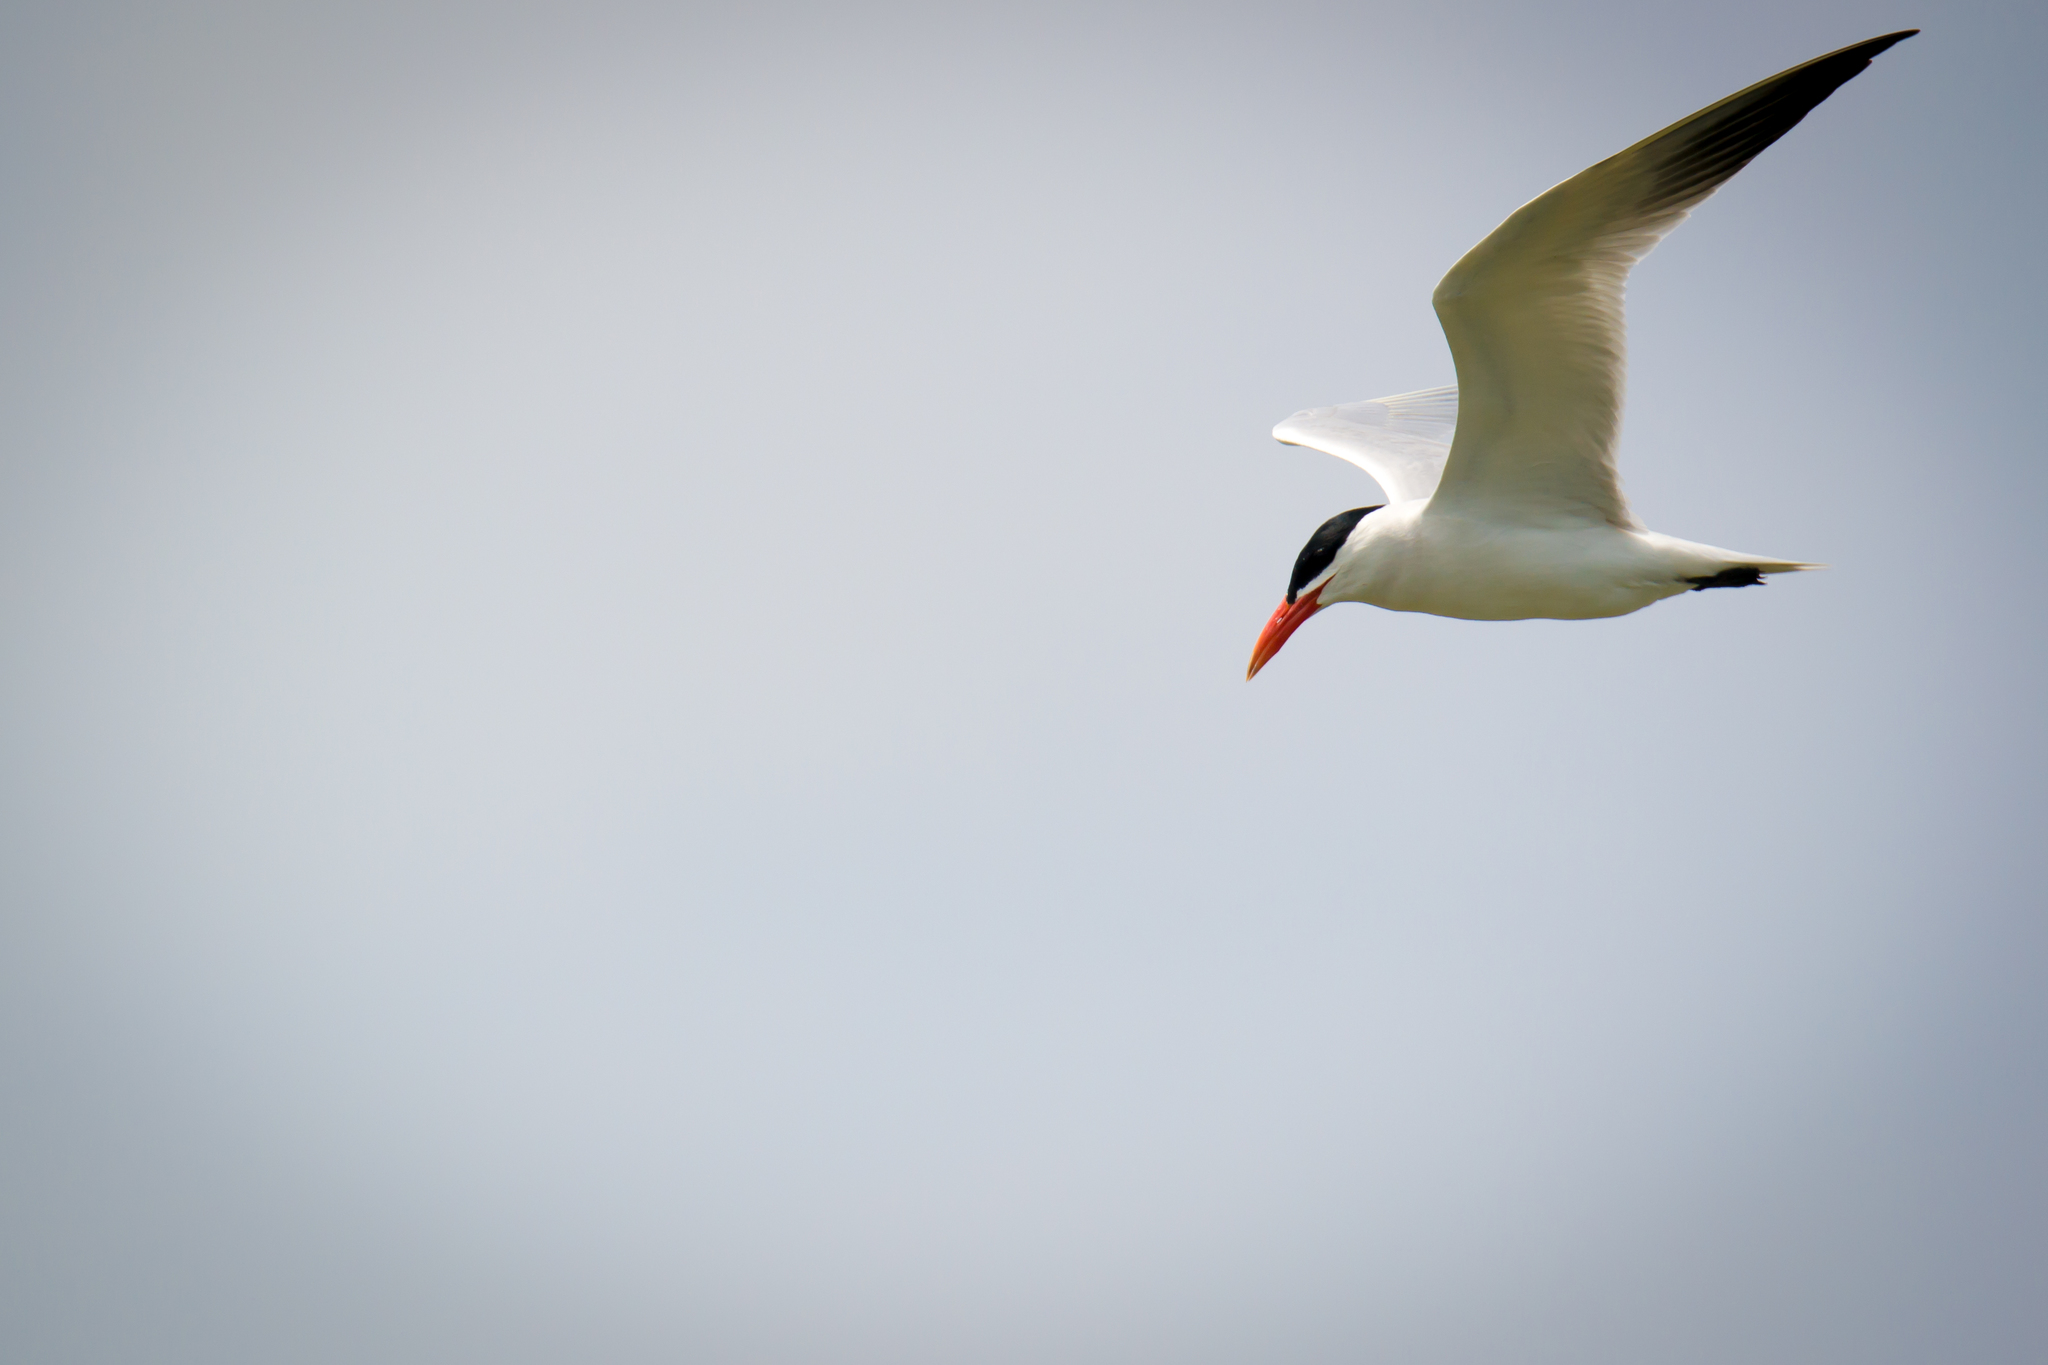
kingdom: Animalia
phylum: Chordata
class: Aves
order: Charadriiformes
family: Laridae
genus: Hydroprogne
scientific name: Hydroprogne caspia
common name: Caspian tern
